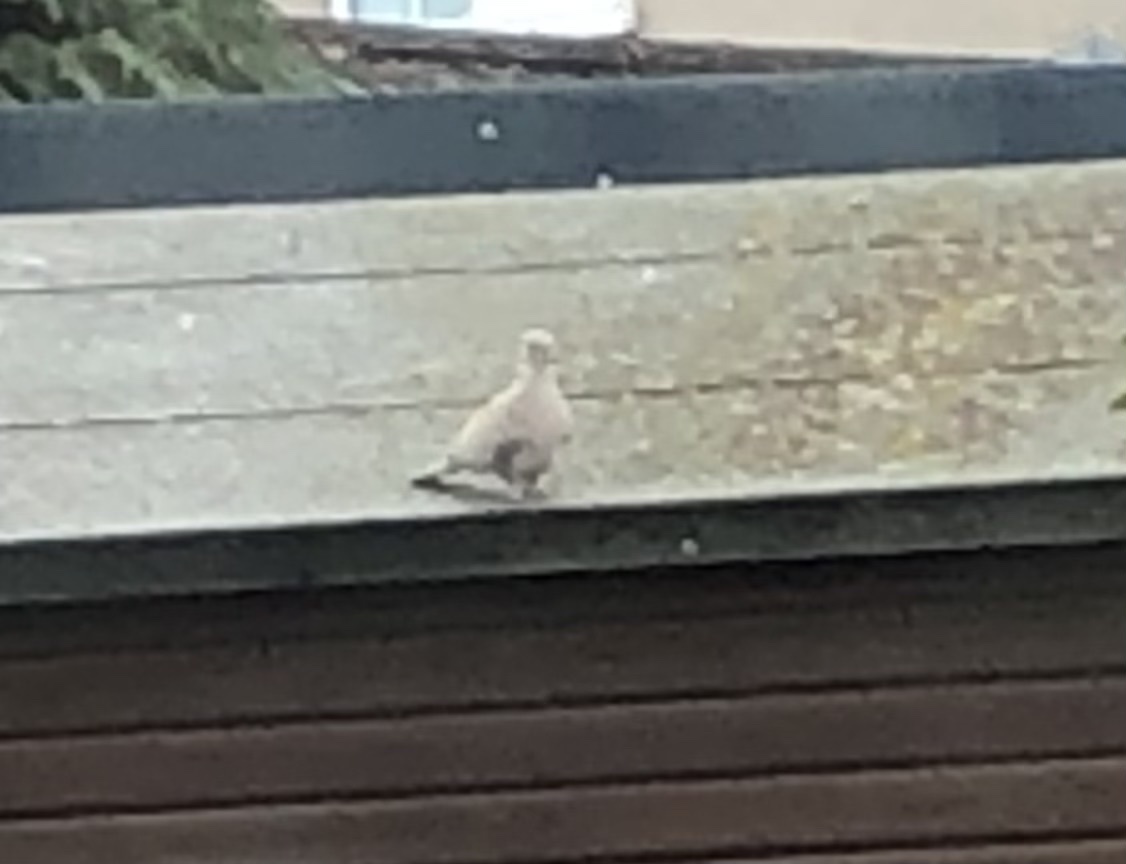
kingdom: Animalia
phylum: Chordata
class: Aves
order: Columbiformes
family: Columbidae
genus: Streptopelia
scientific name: Streptopelia decaocto
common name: Eurasian collared dove
